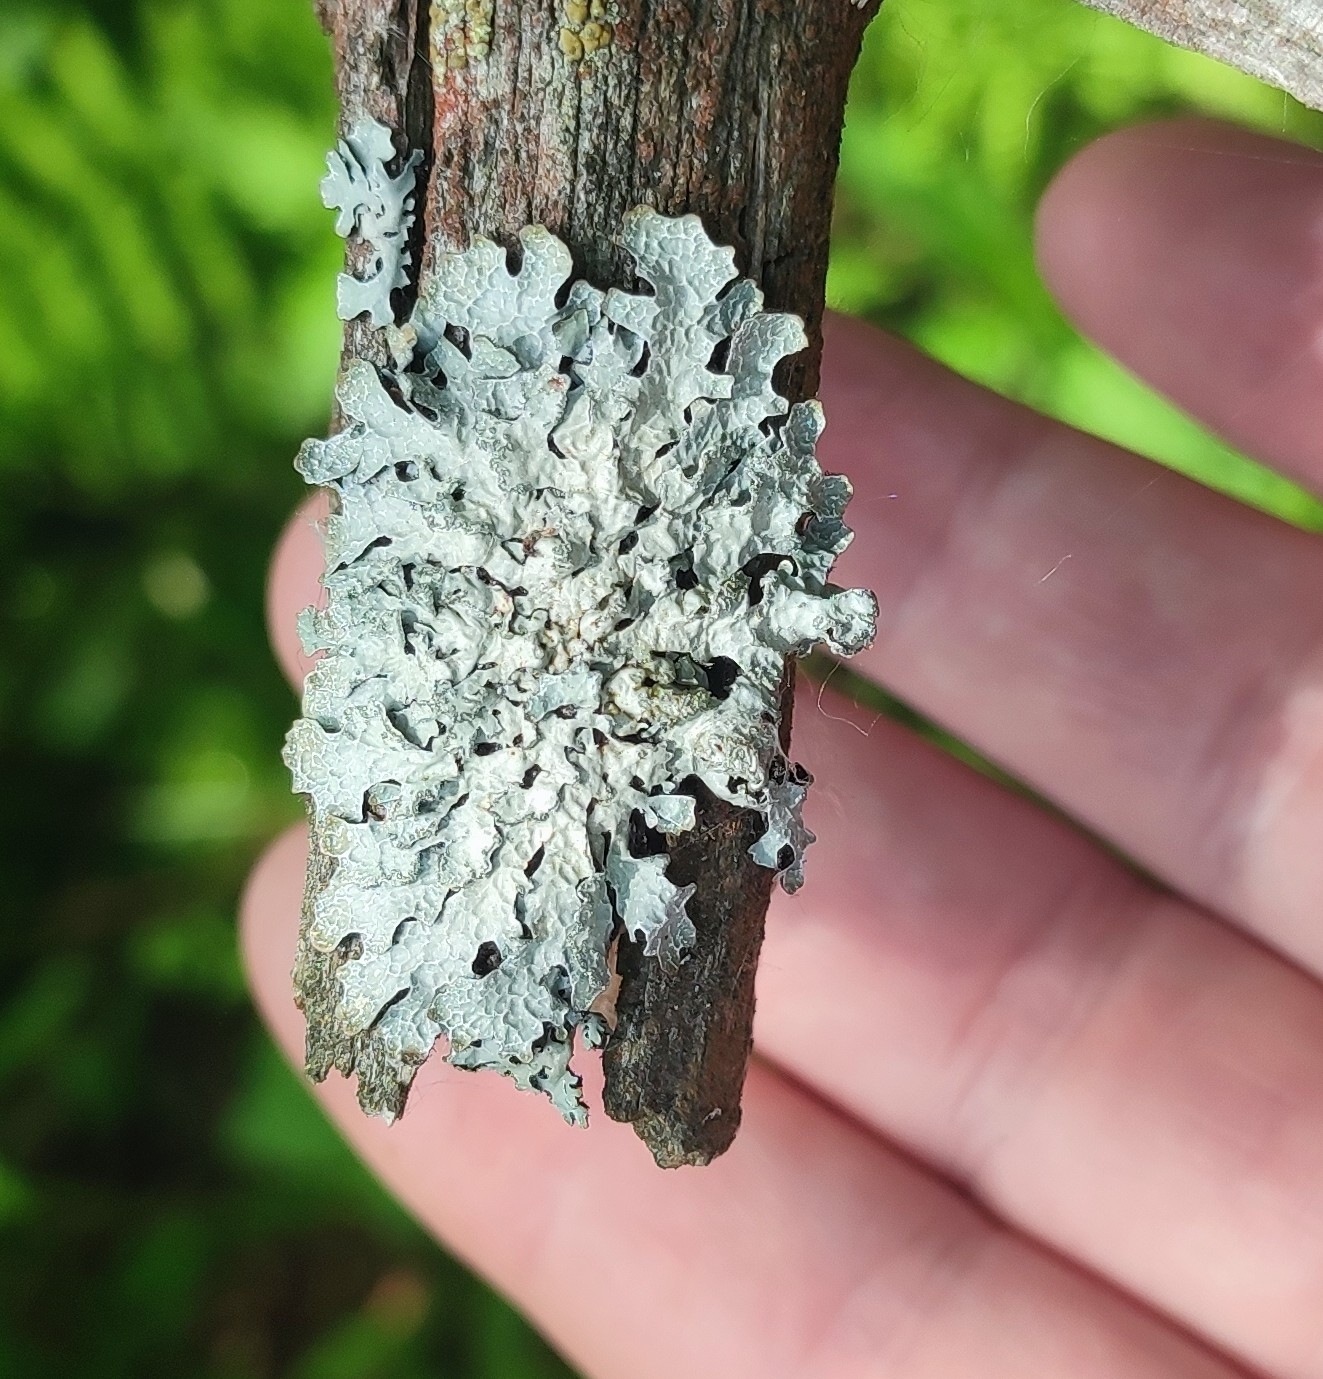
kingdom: Fungi
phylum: Ascomycota
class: Lecanoromycetes
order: Lecanorales
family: Parmeliaceae
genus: Parmelia
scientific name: Parmelia sulcata
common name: Netted shield lichen
